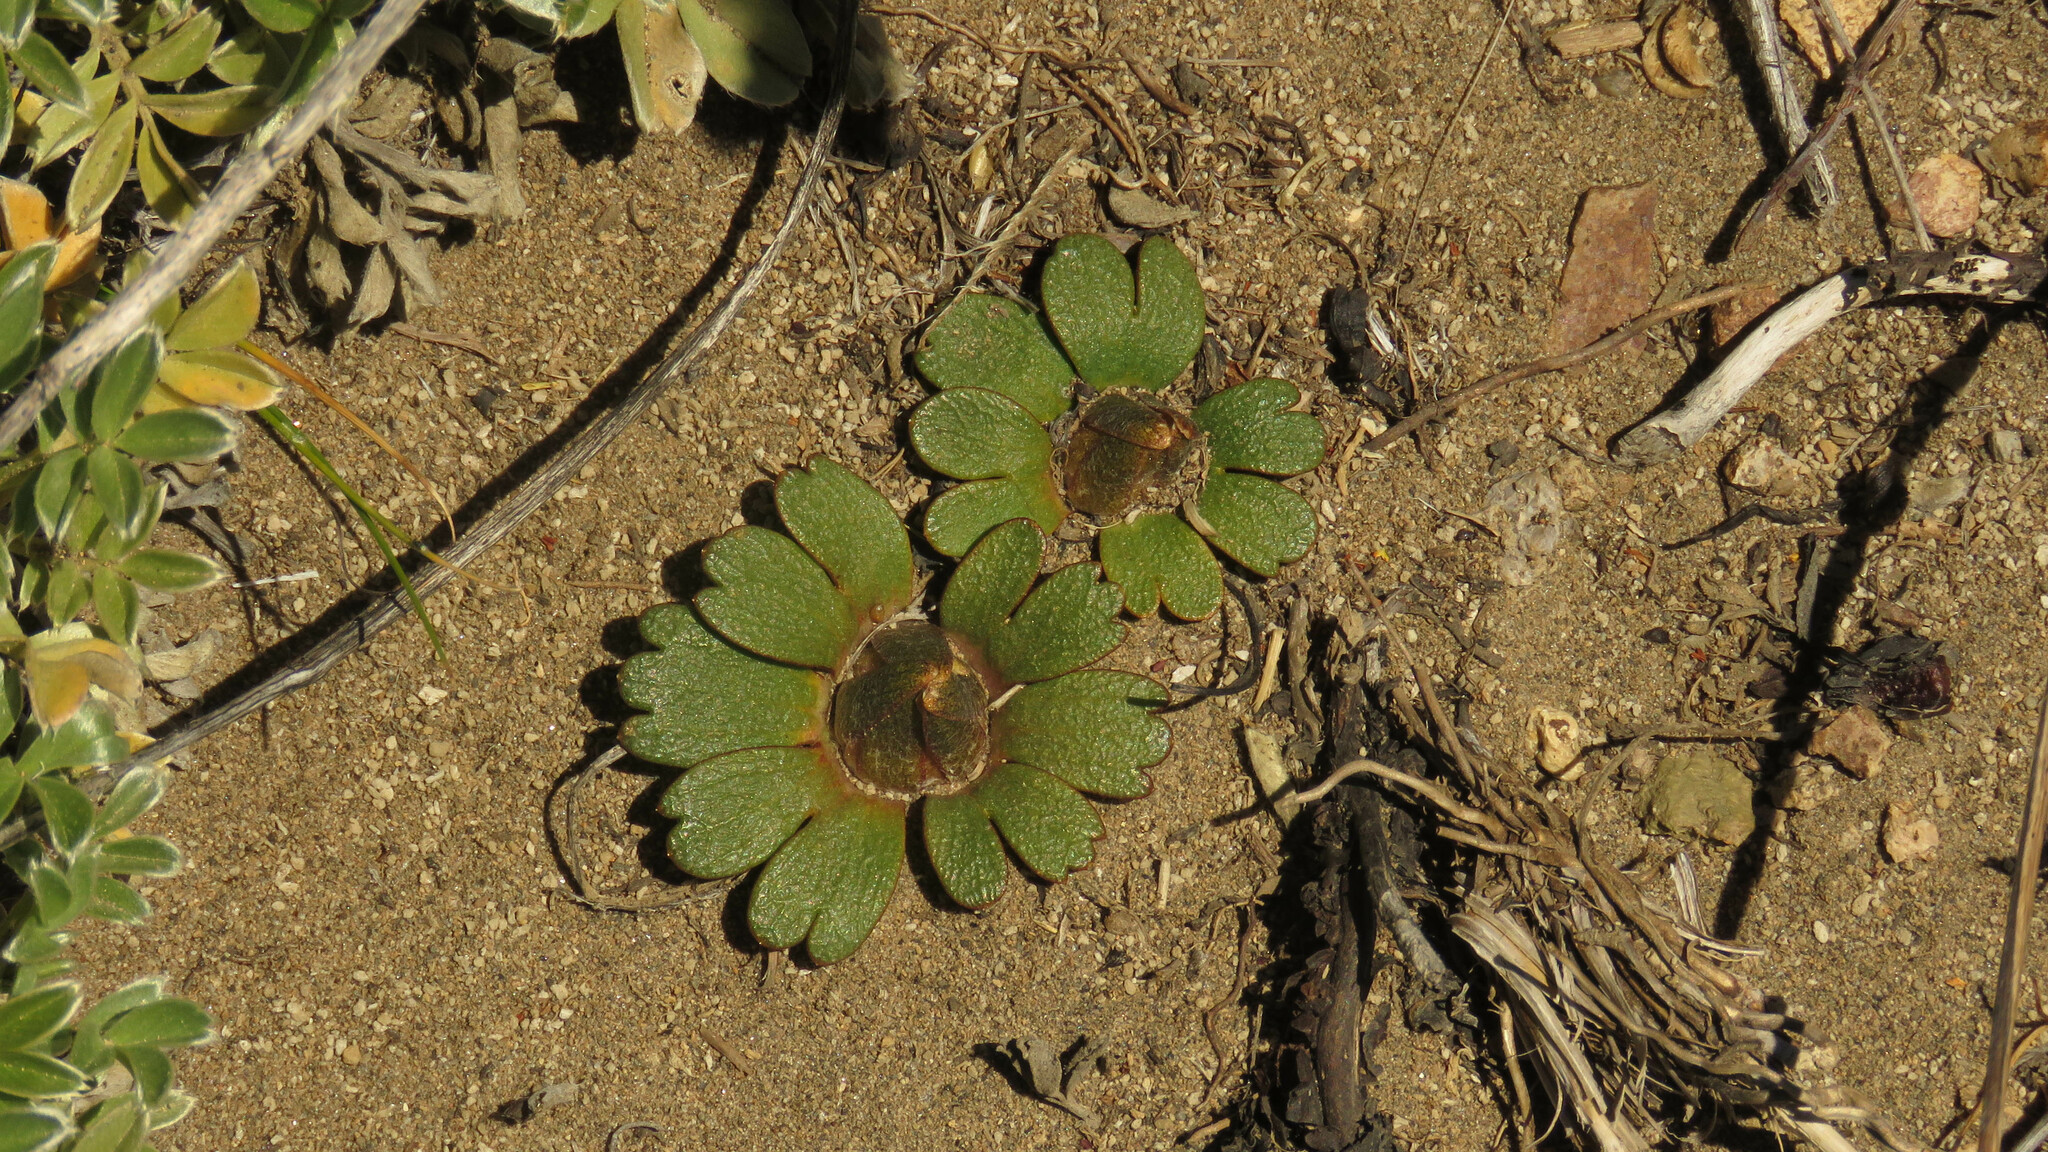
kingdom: Plantae
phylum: Tracheophyta
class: Magnoliopsida
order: Ranunculales
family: Ranunculaceae
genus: Knowltonia
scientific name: Knowltonia major
